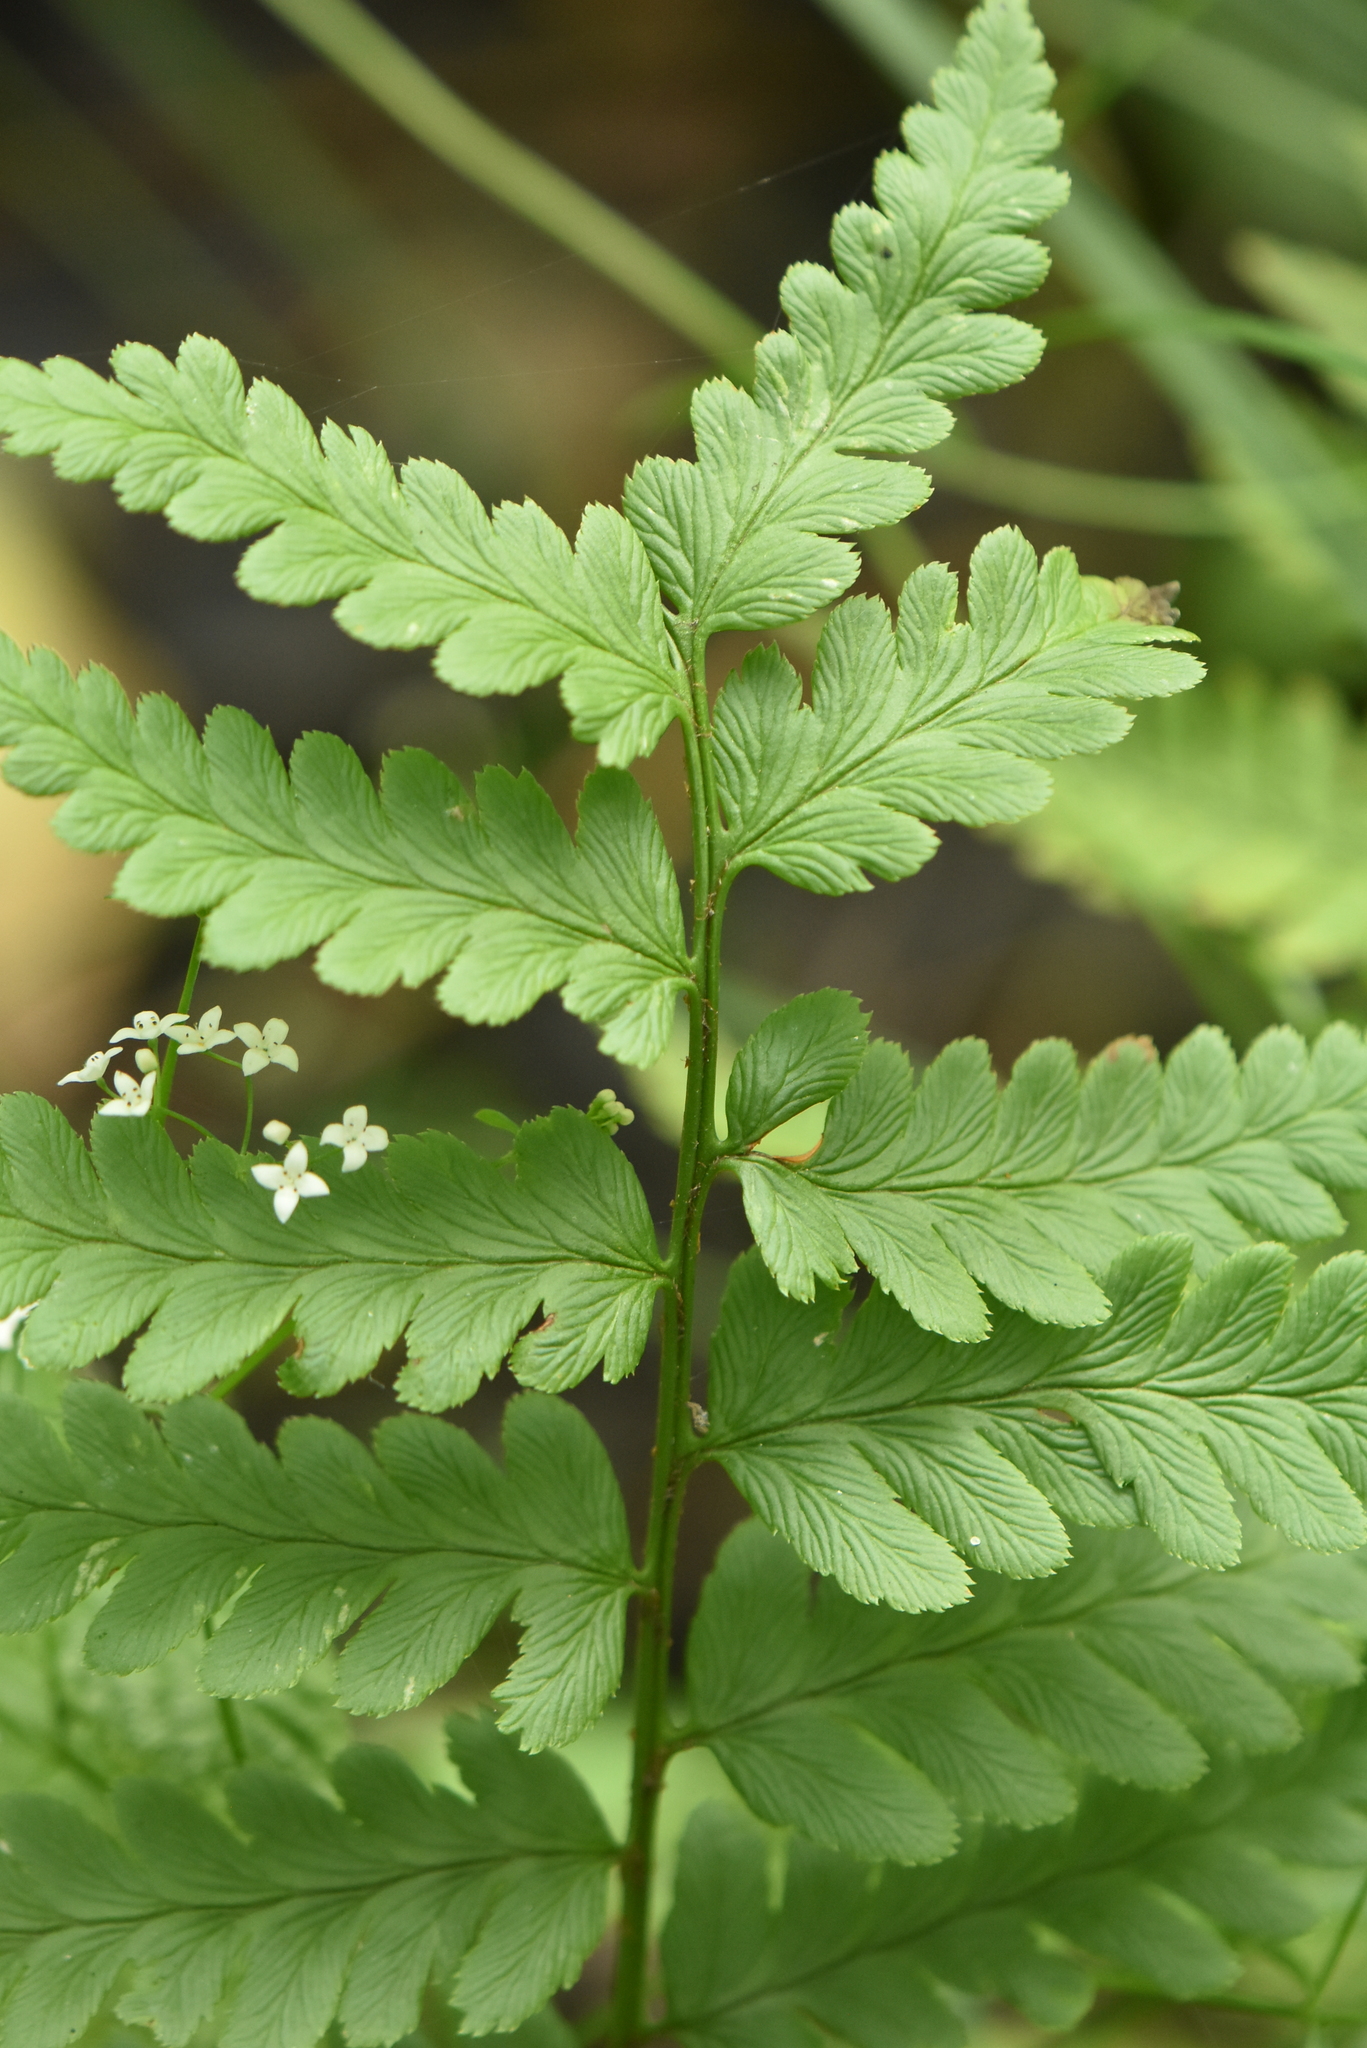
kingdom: Plantae
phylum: Tracheophyta
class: Polypodiopsida
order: Polypodiales
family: Dryopteridaceae
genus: Dryopteris
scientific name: Dryopteris cristata
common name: Crested wood fern
